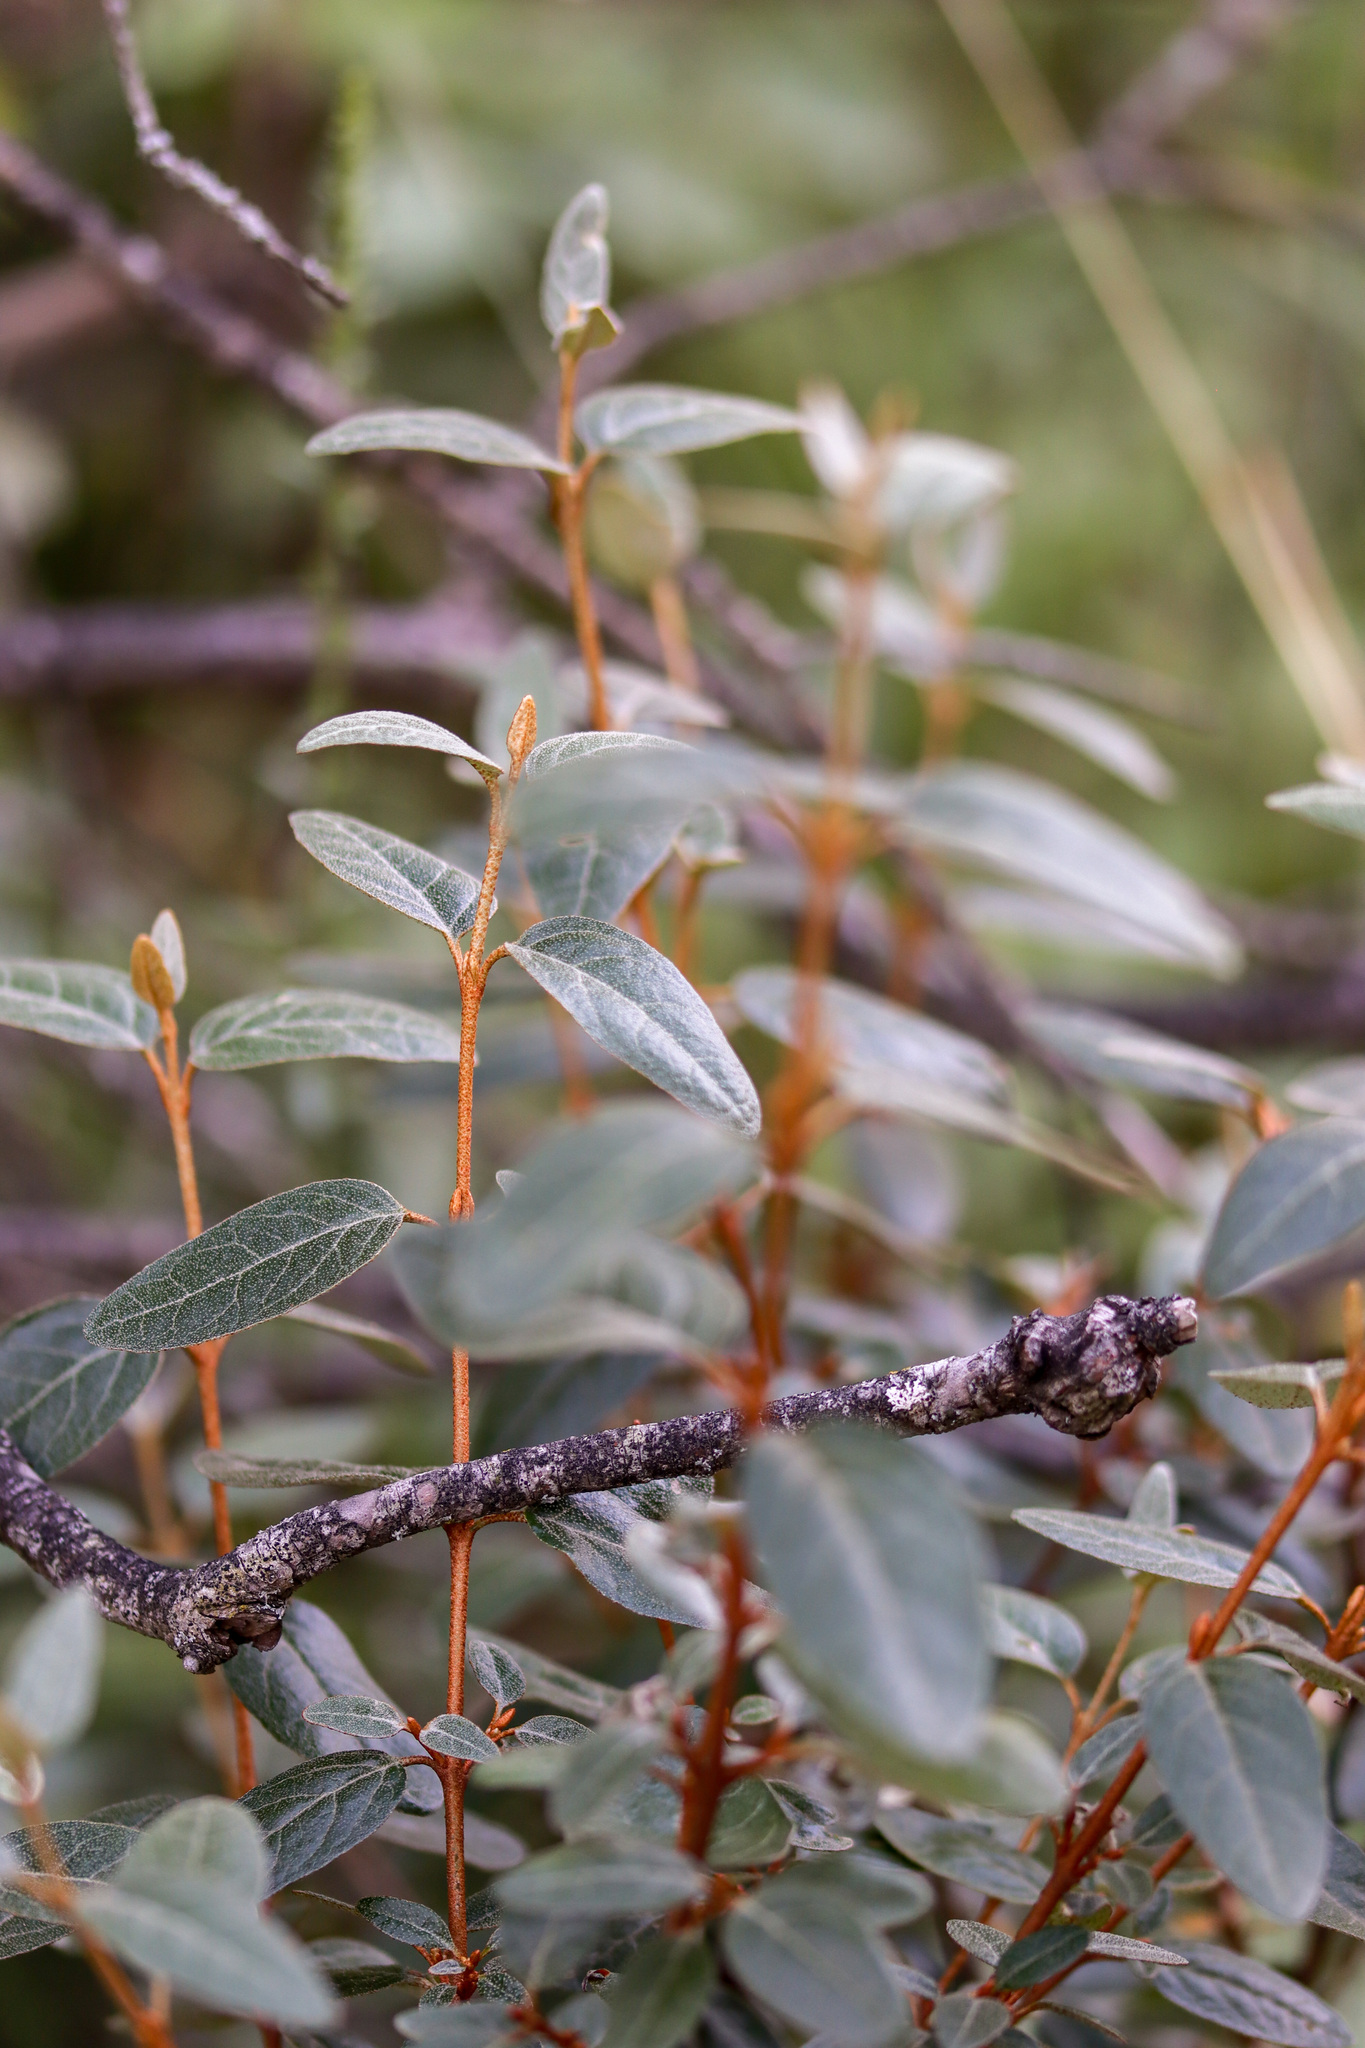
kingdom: Plantae
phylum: Tracheophyta
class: Magnoliopsida
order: Rosales
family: Elaeagnaceae
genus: Shepherdia
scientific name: Shepherdia canadensis
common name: Soapberry
